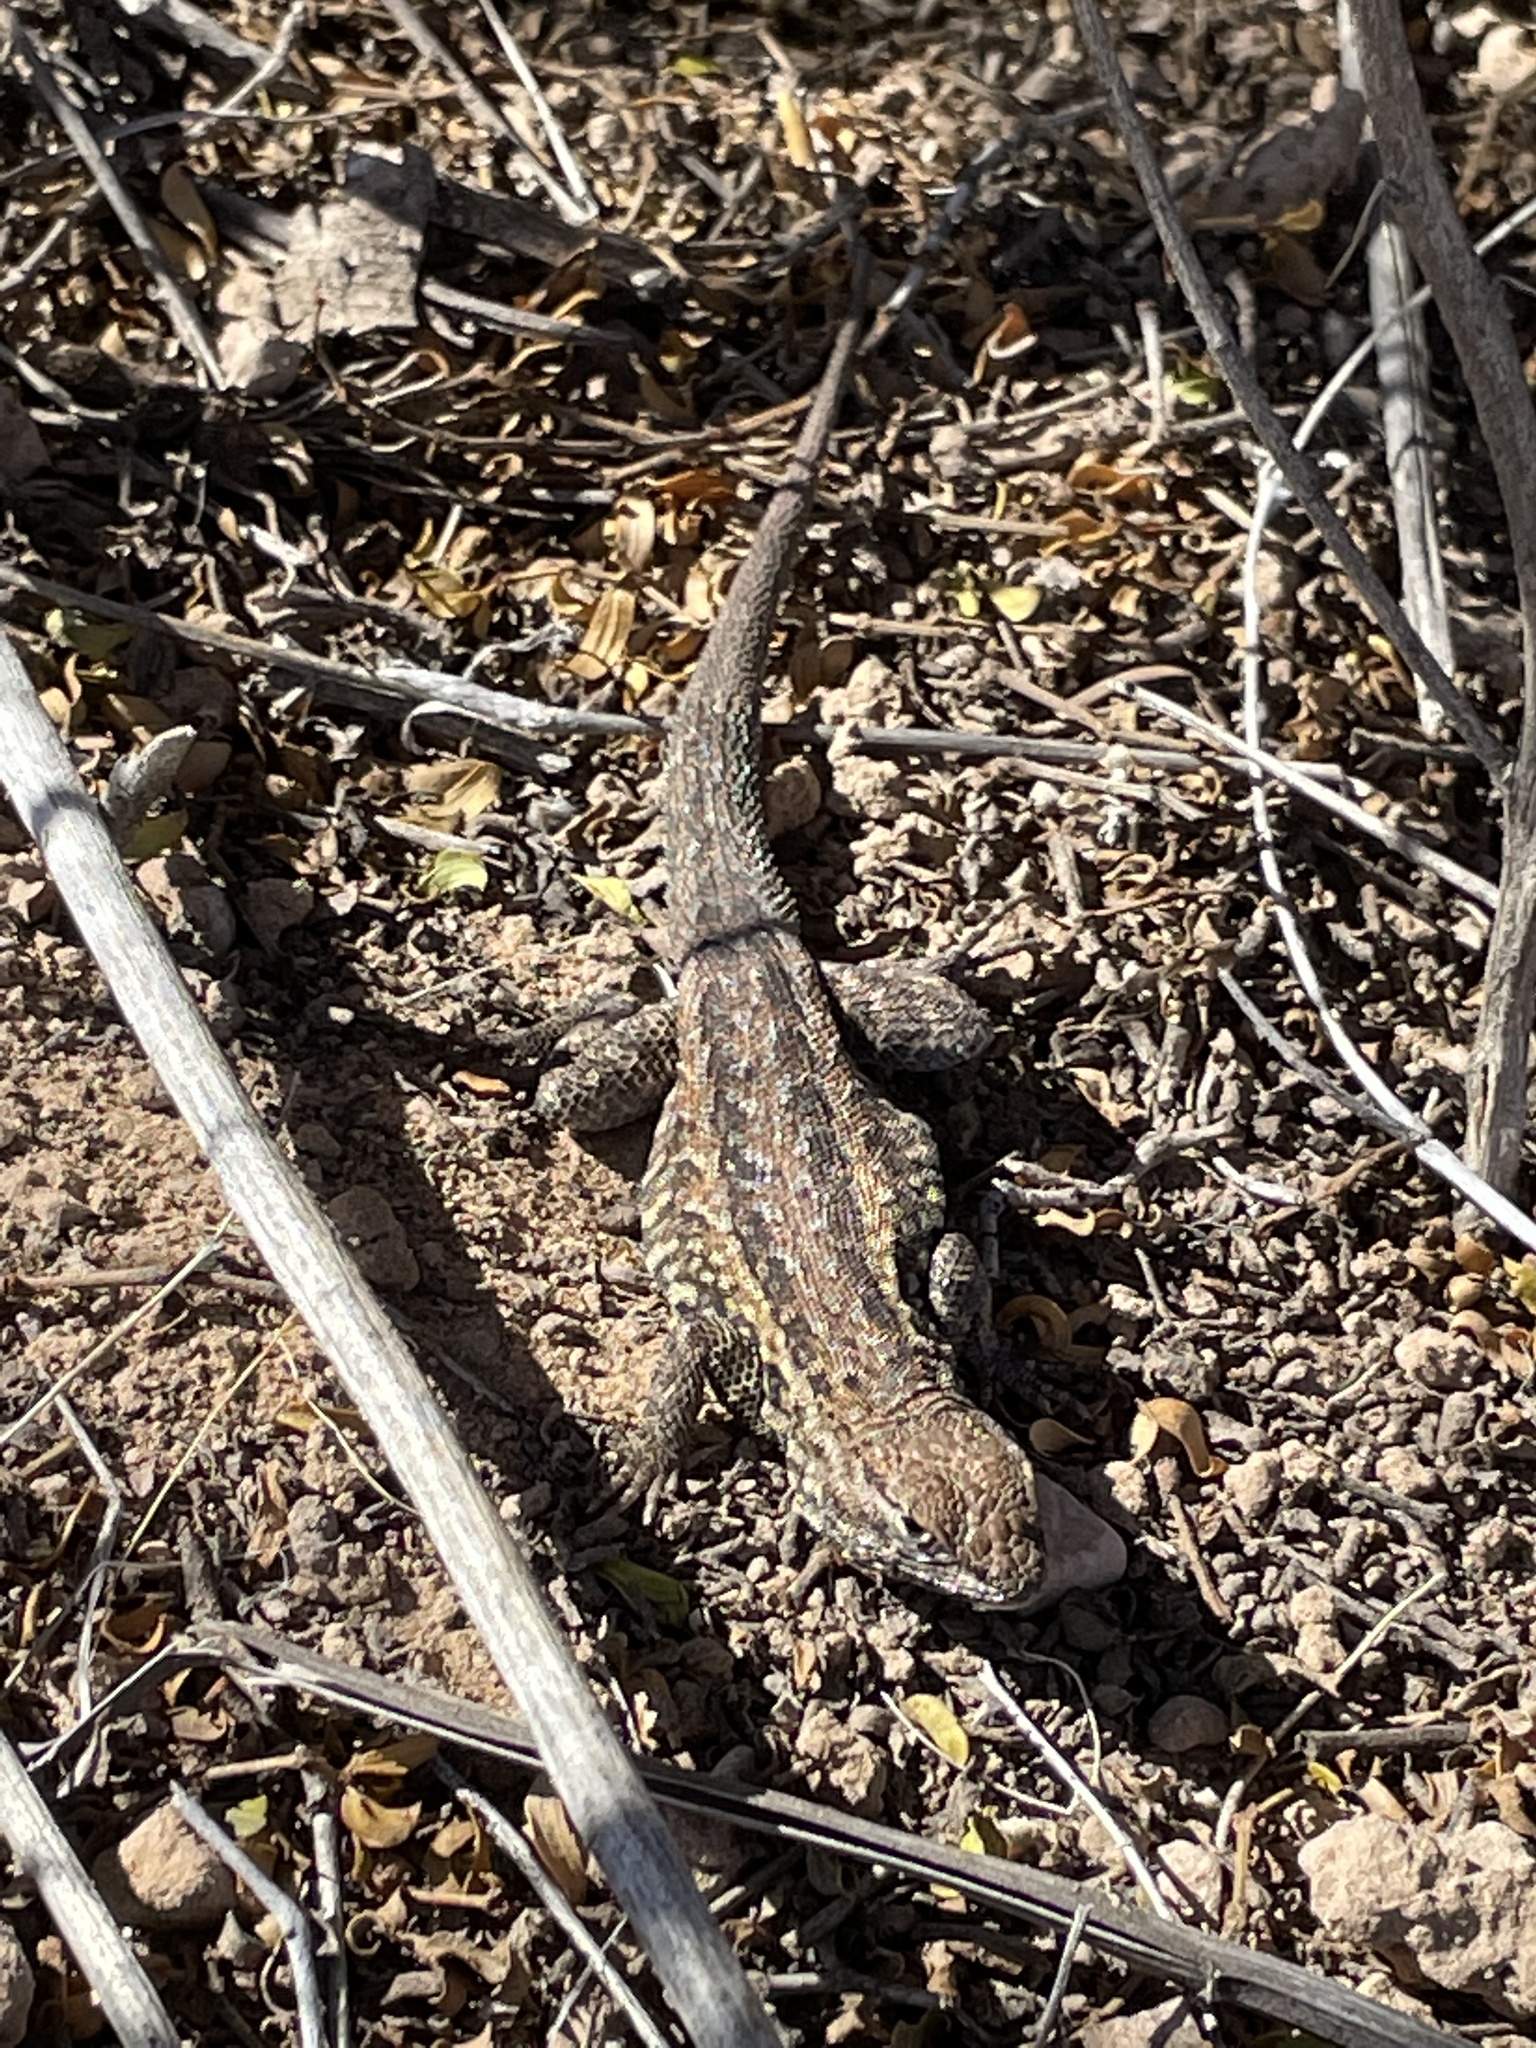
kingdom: Animalia
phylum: Chordata
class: Squamata
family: Phrynosomatidae
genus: Uta
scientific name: Uta stansburiana
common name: Side-blotched lizard
